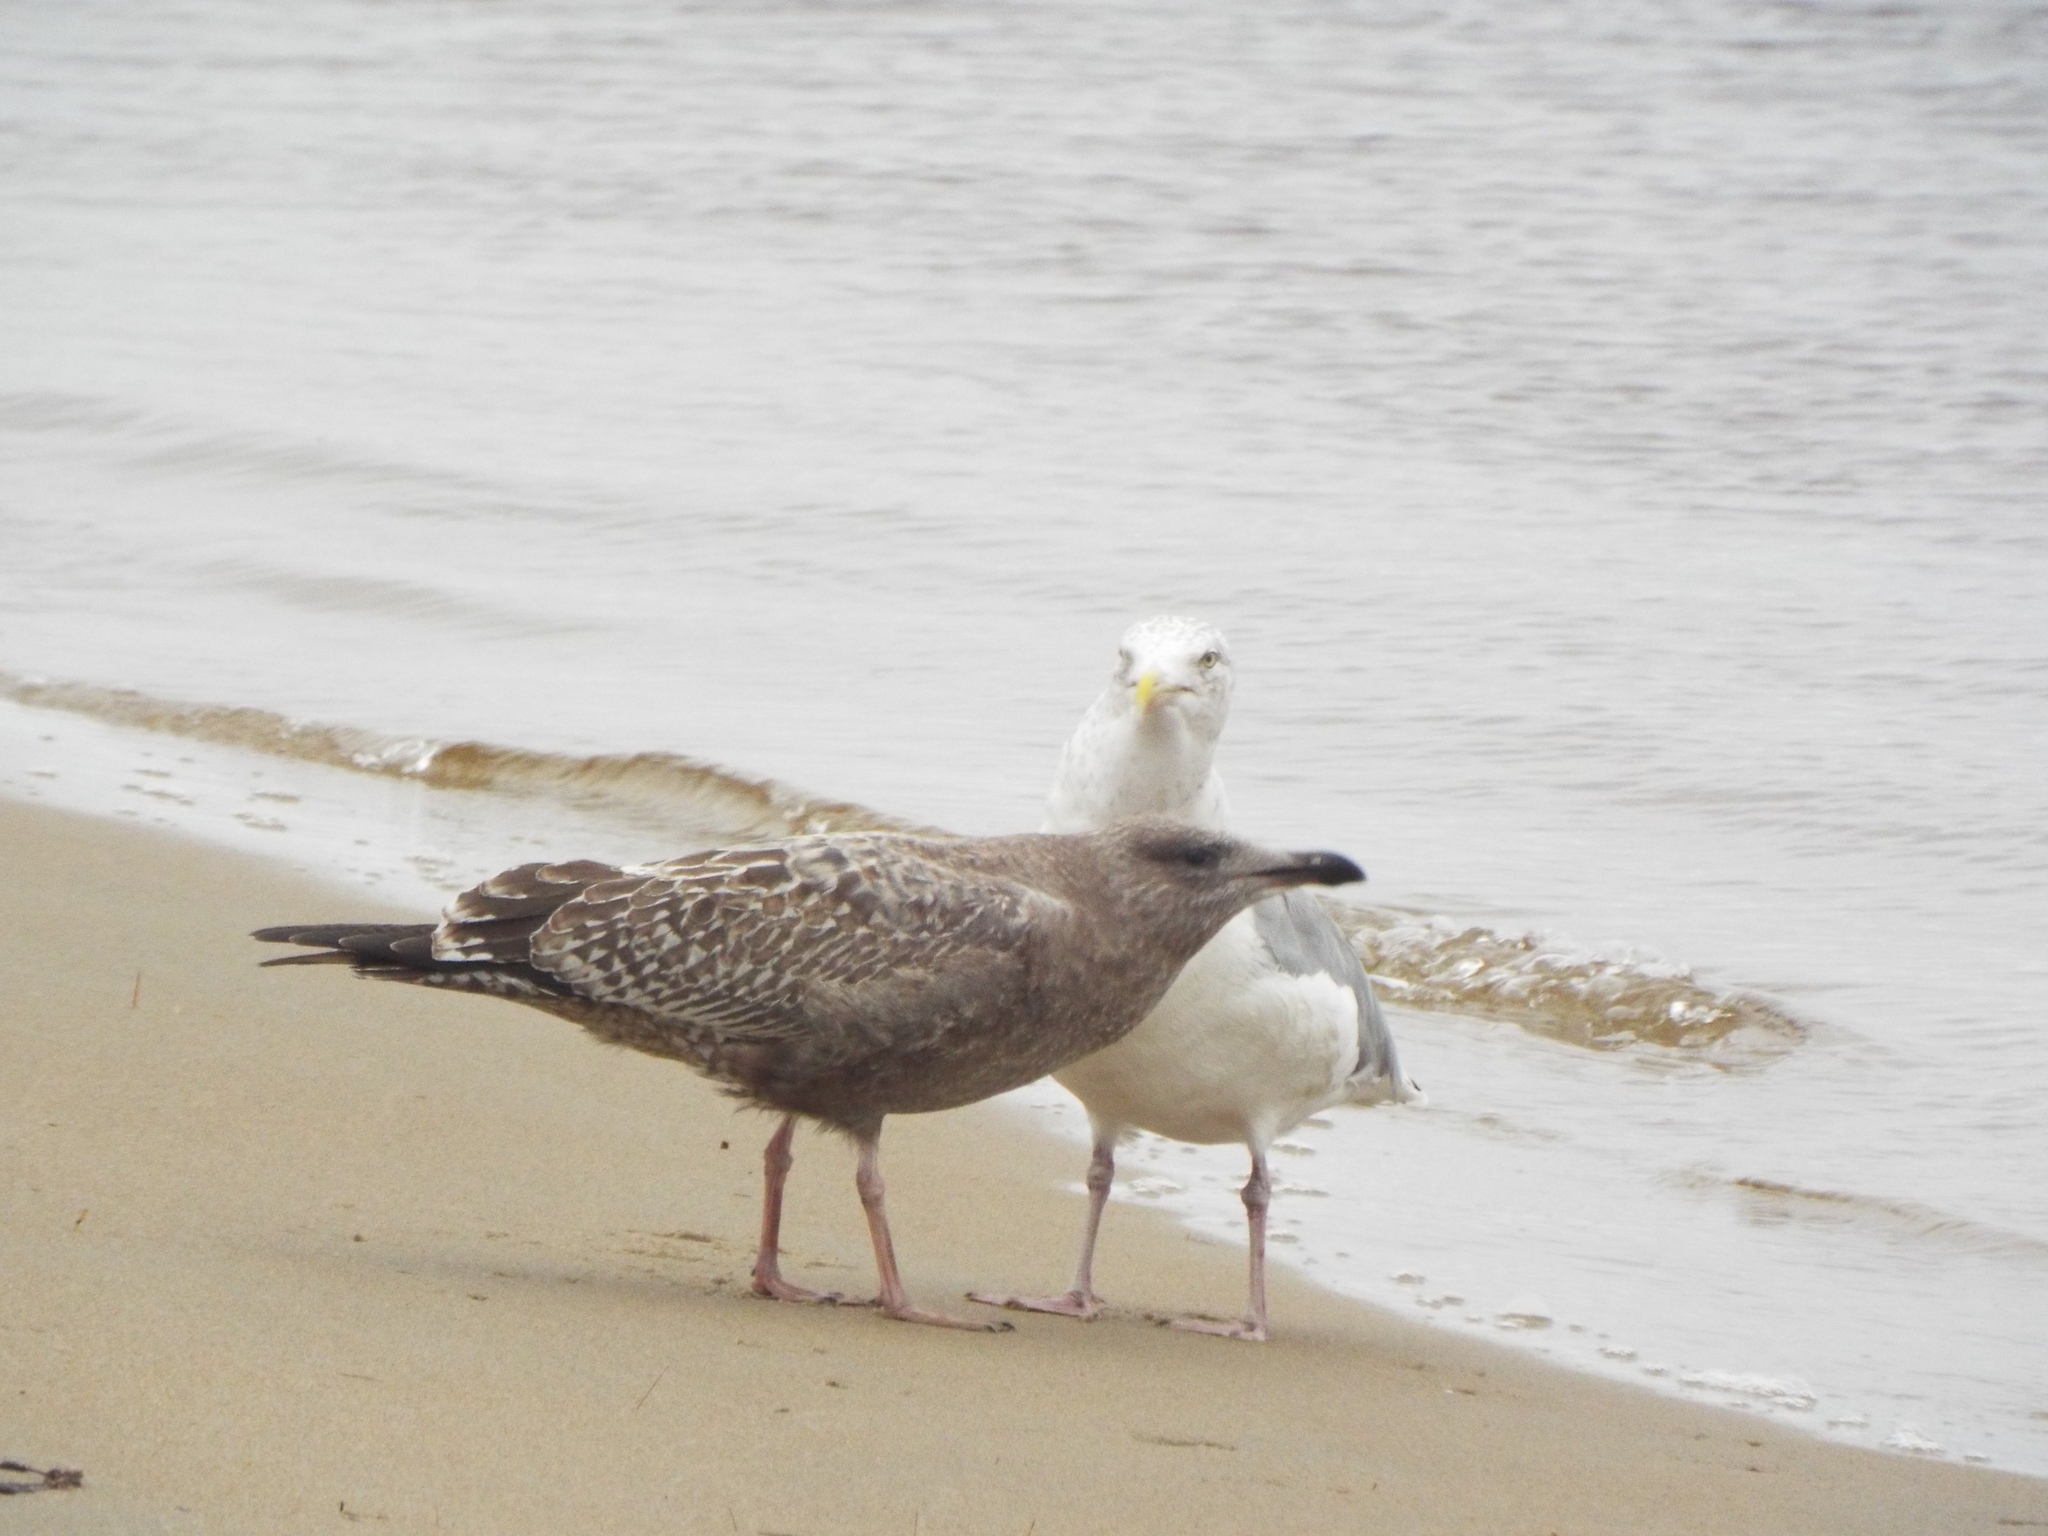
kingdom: Animalia
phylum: Chordata
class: Aves
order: Charadriiformes
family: Laridae
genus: Larus
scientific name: Larus argentatus
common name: Herring gull
